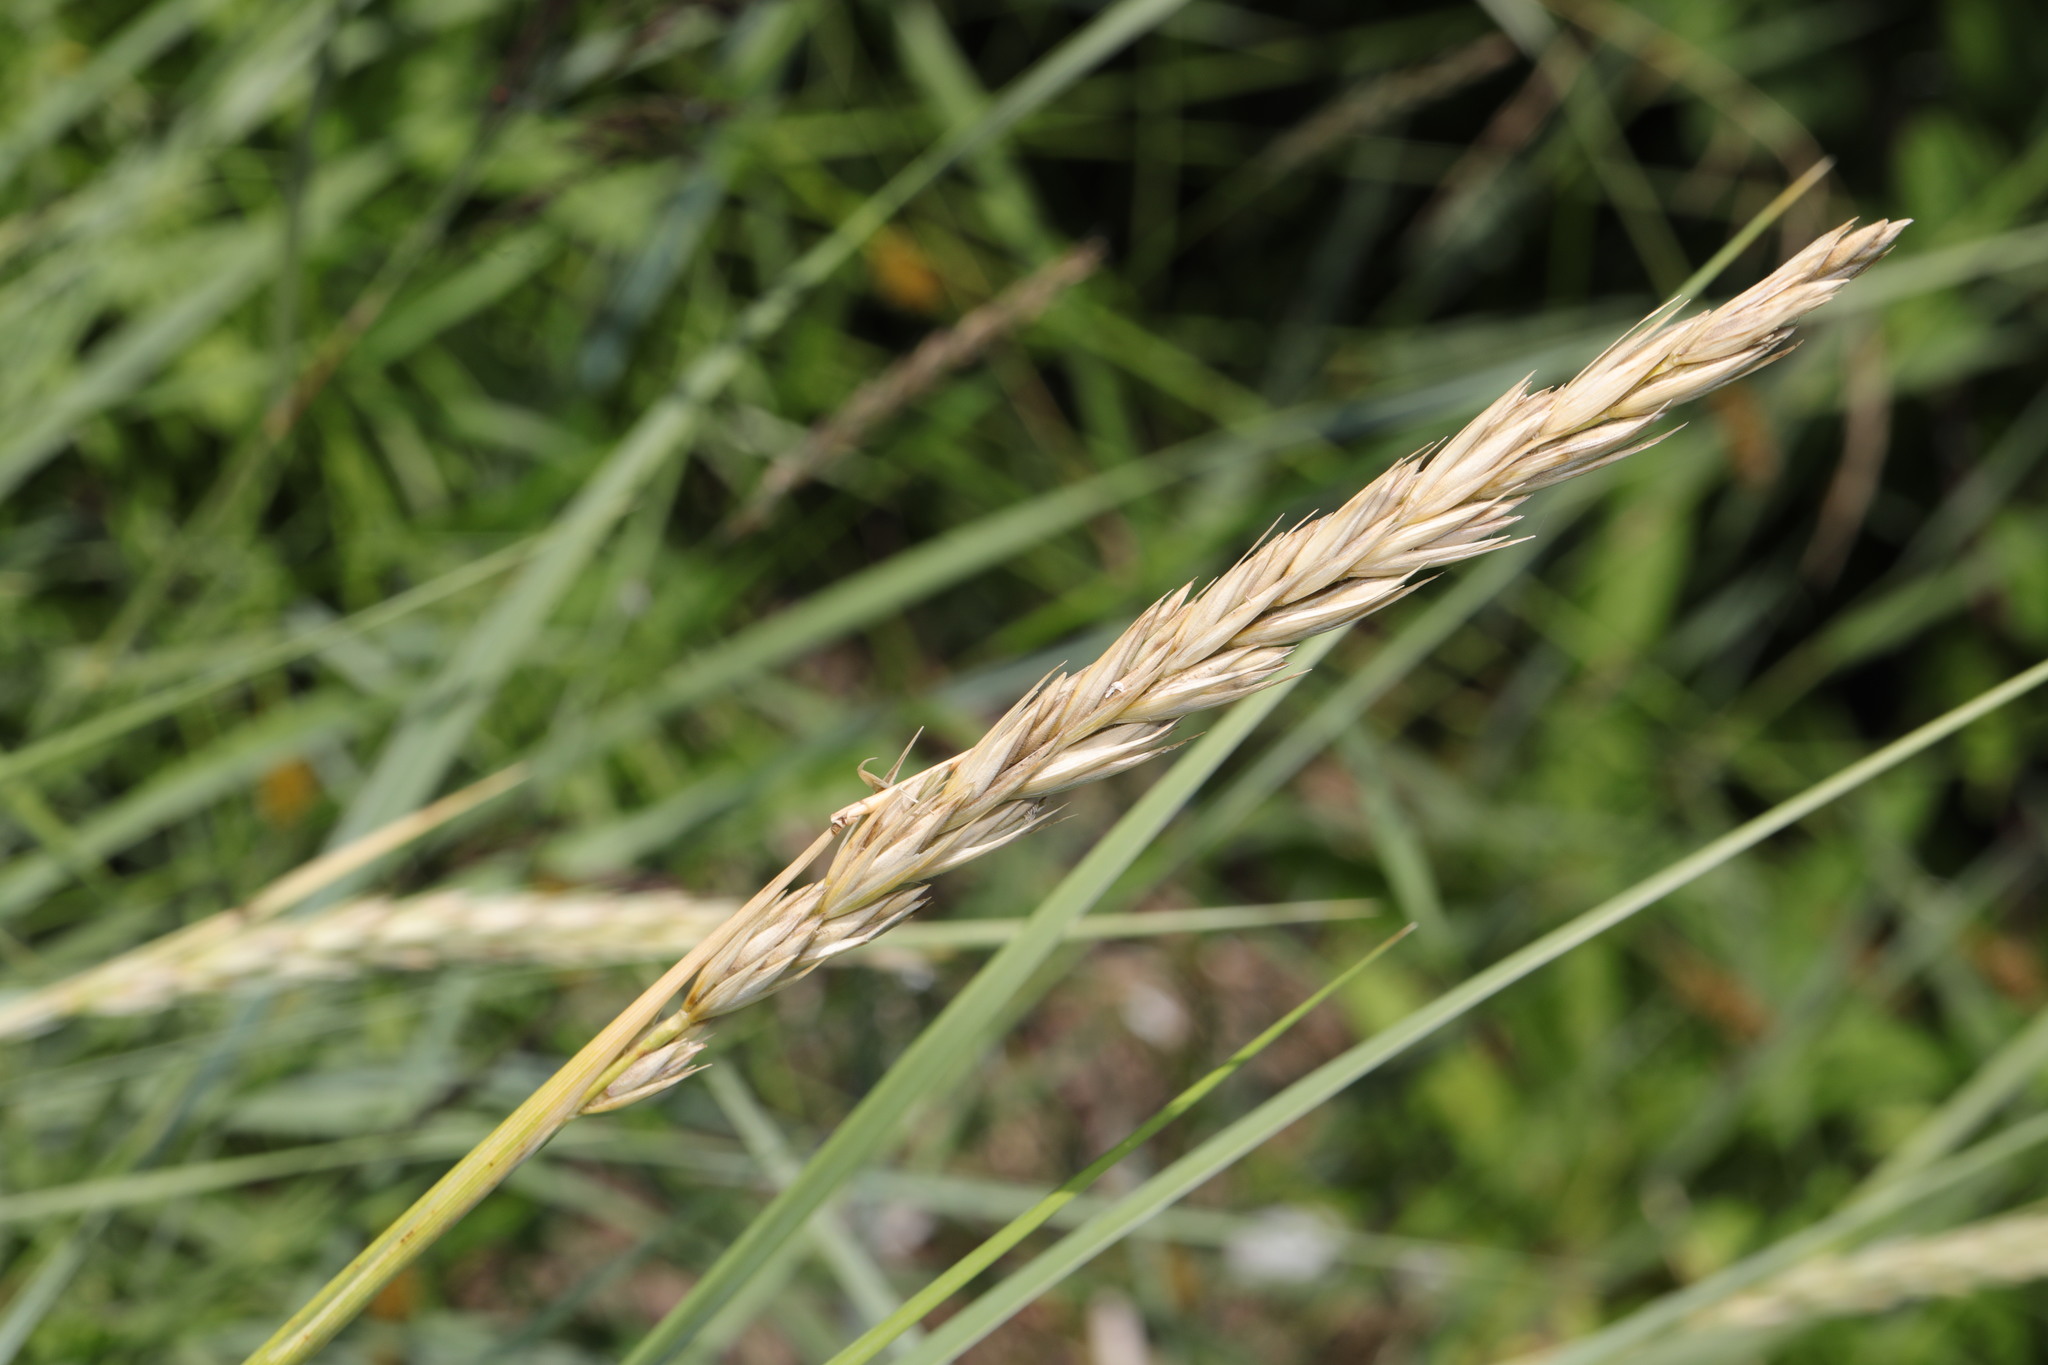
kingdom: Plantae
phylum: Tracheophyta
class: Liliopsida
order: Poales
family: Poaceae
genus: Leymus
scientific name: Leymus arenarius
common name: Lyme-grass
